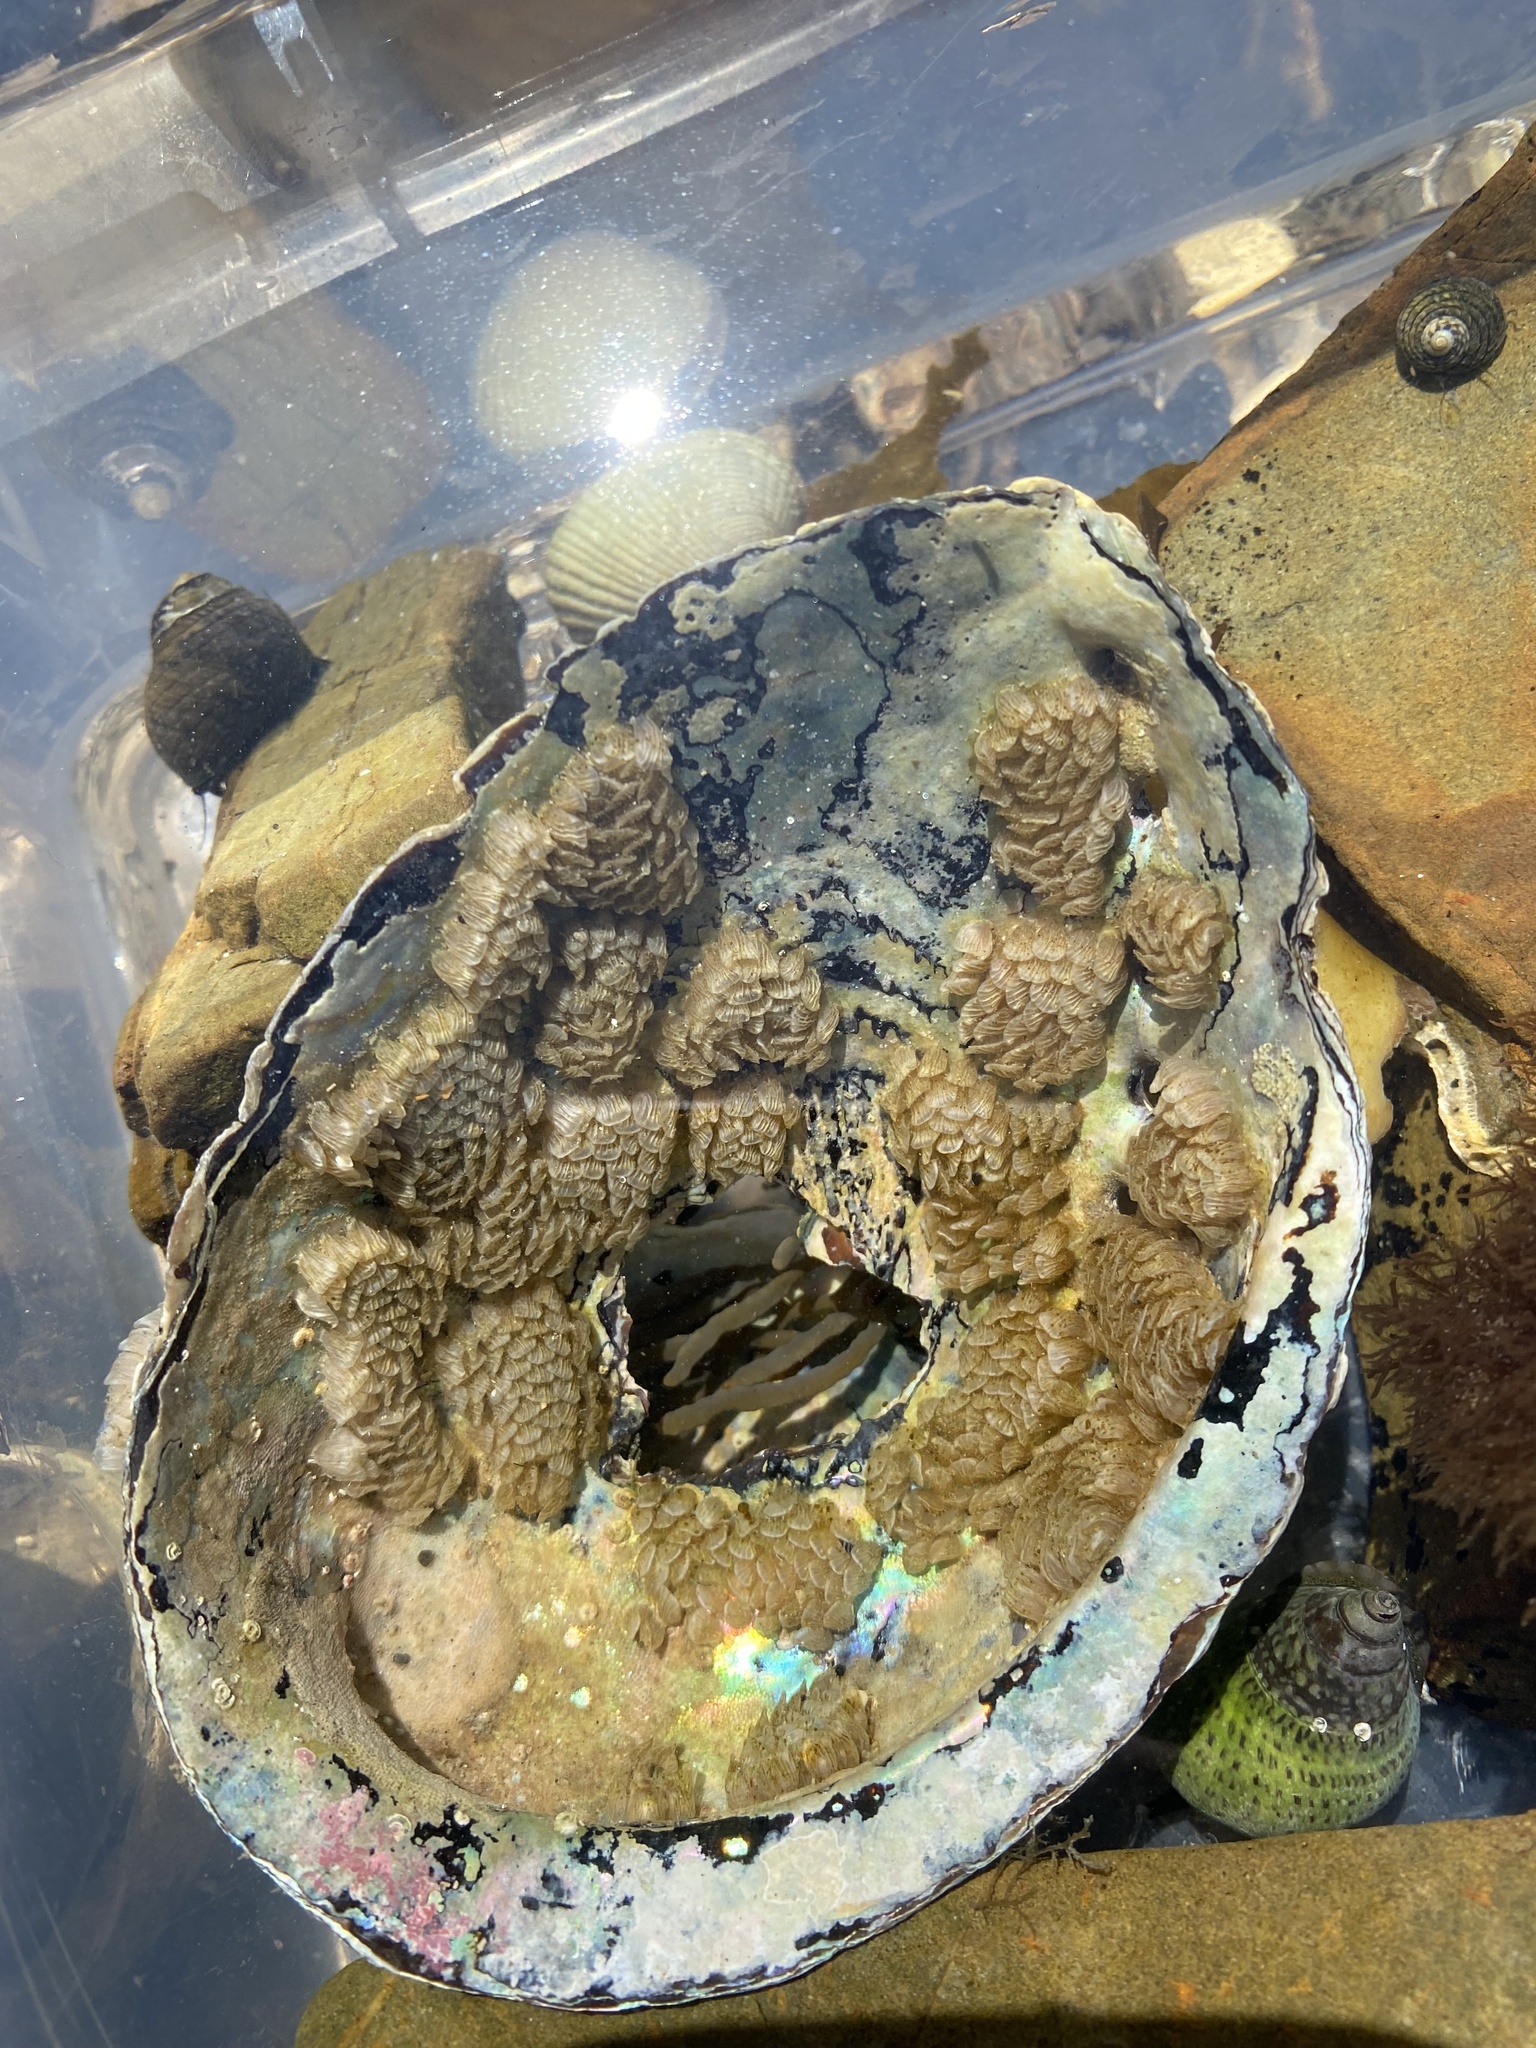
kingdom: Animalia
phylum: Mollusca
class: Gastropoda
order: Neogastropoda
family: Cominellidae
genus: Cominella
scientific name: Cominella virgata
